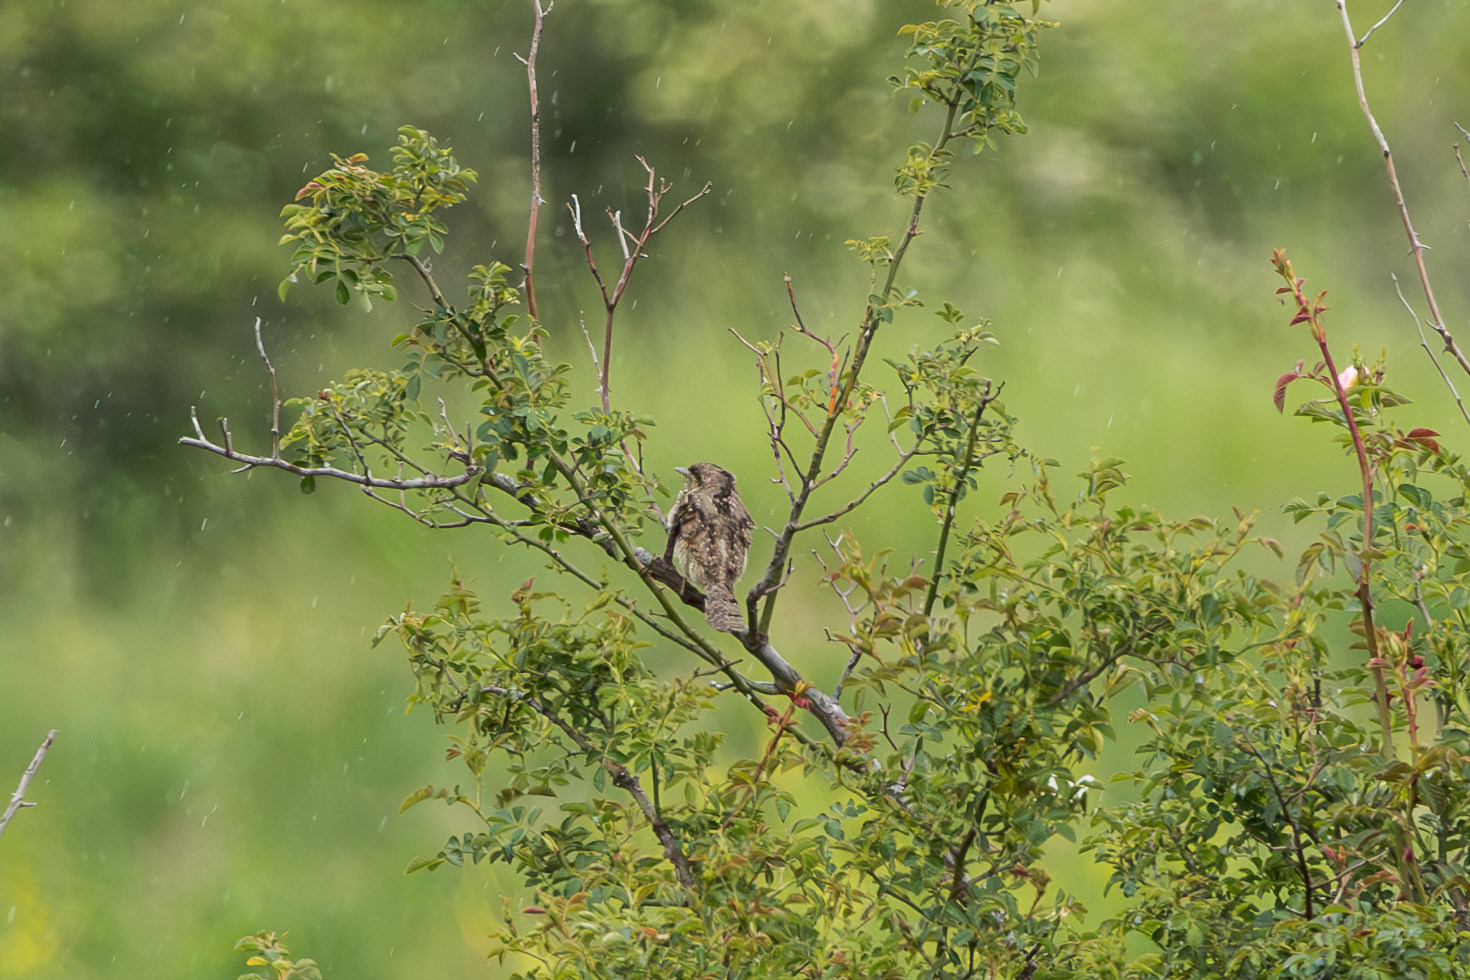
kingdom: Animalia
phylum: Chordata
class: Aves
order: Piciformes
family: Picidae
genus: Jynx
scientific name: Jynx torquilla
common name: Eurasian wryneck
